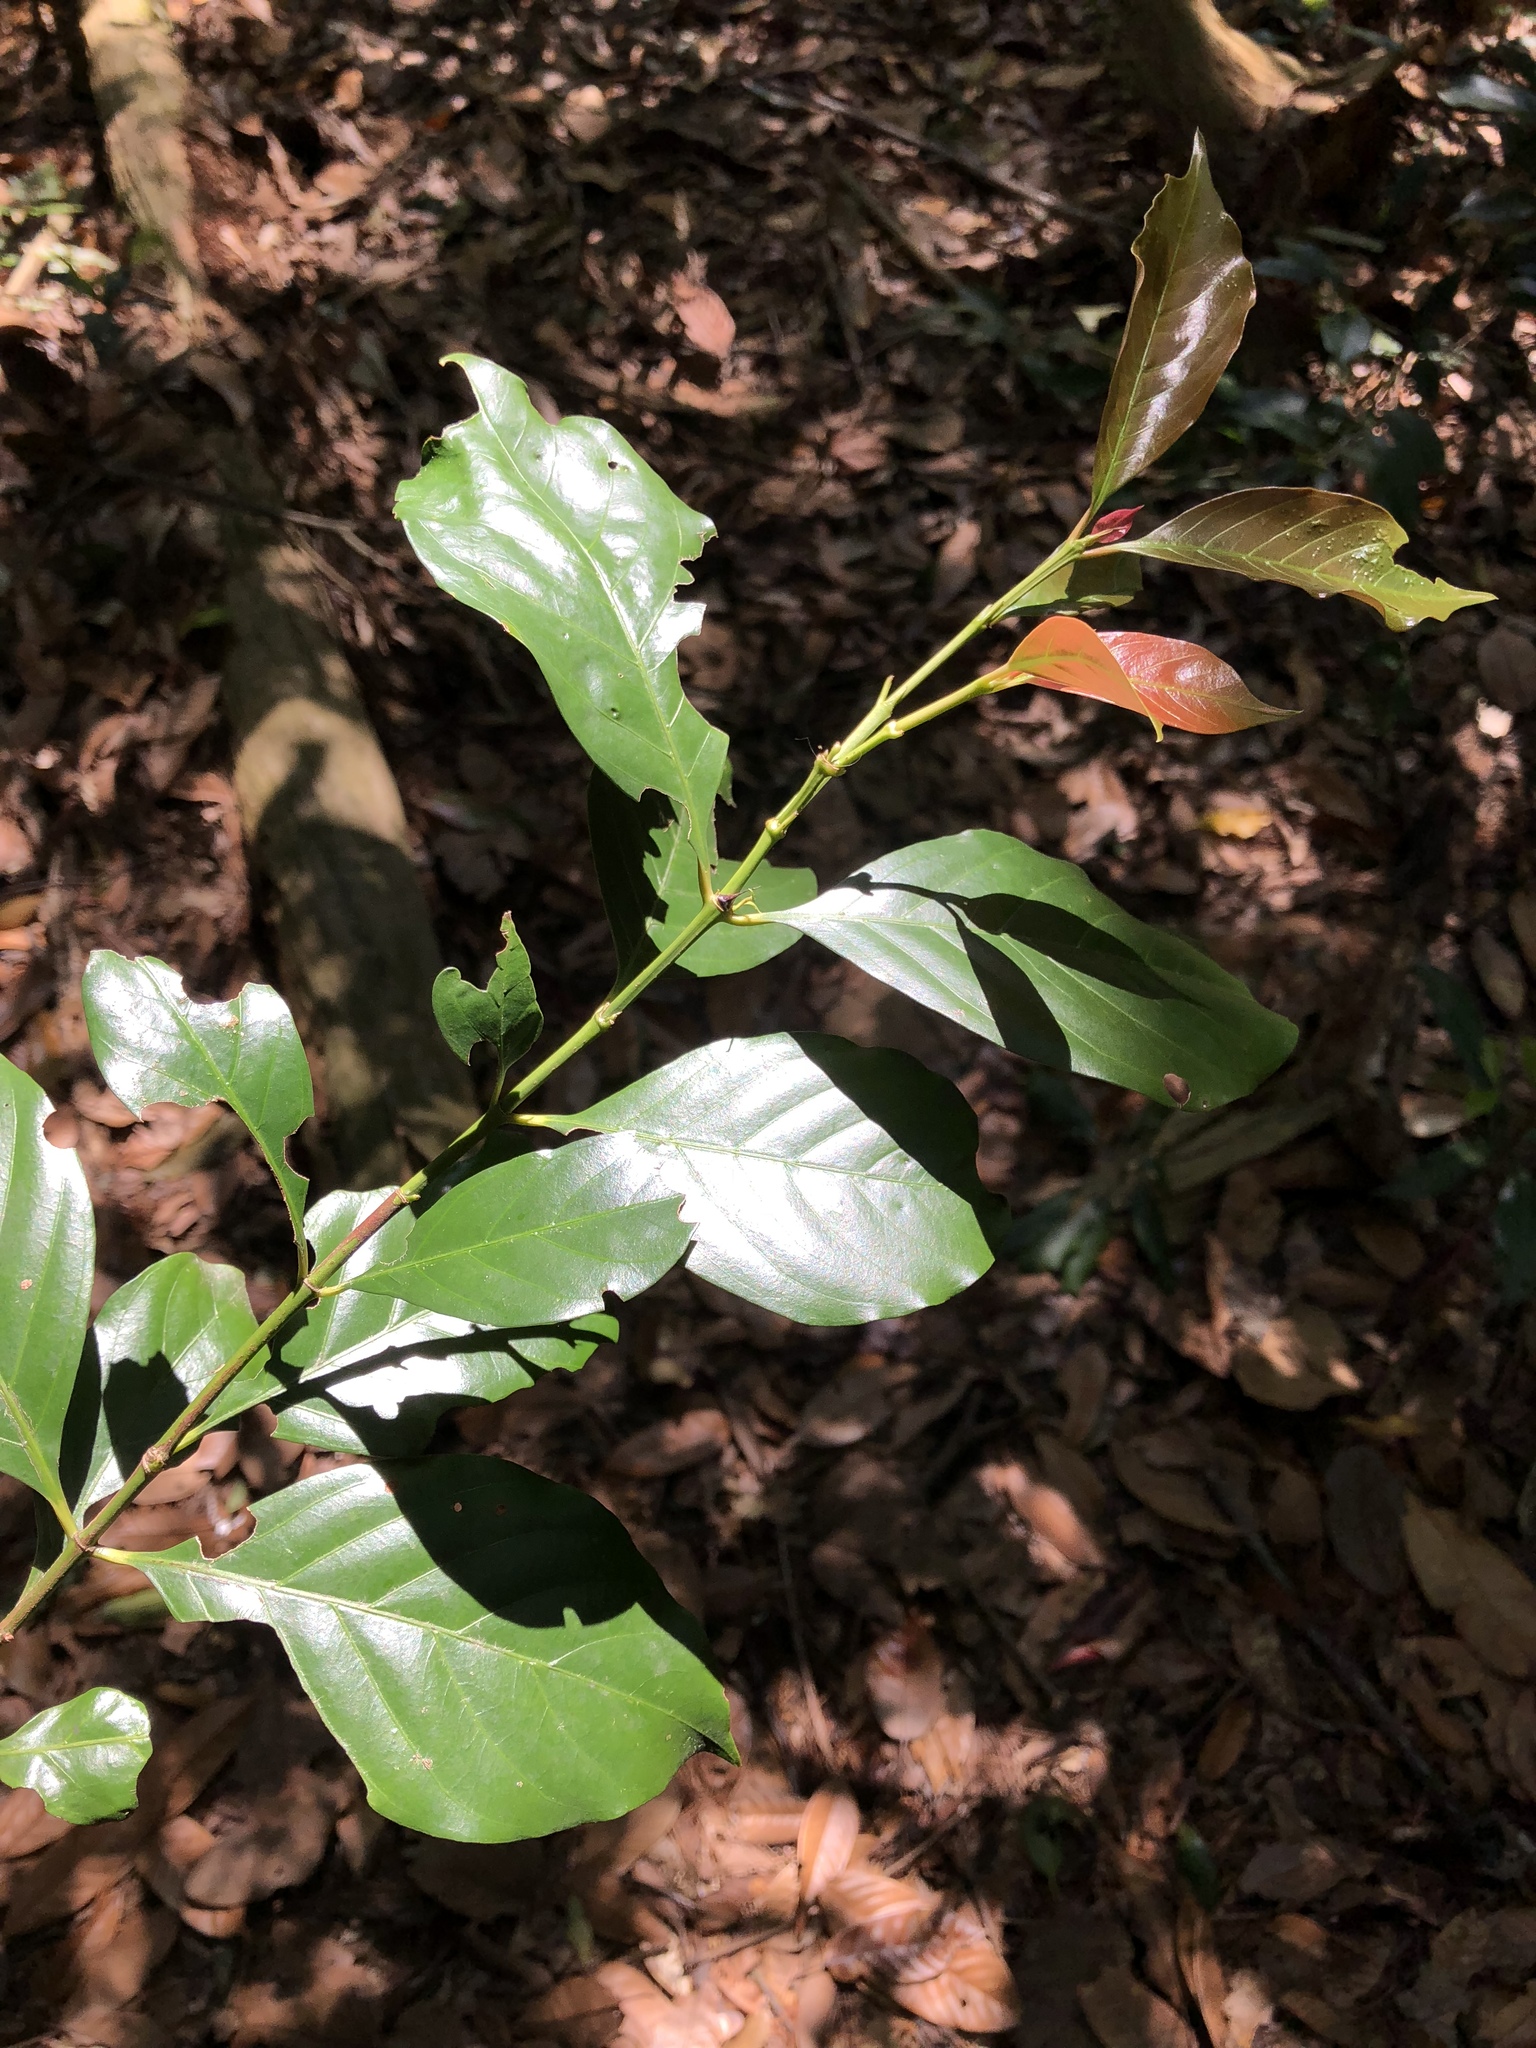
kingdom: Plantae
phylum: Tracheophyta
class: Magnoliopsida
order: Gentianales
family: Rubiaceae
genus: Aidia
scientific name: Aidia cochinchinensis
